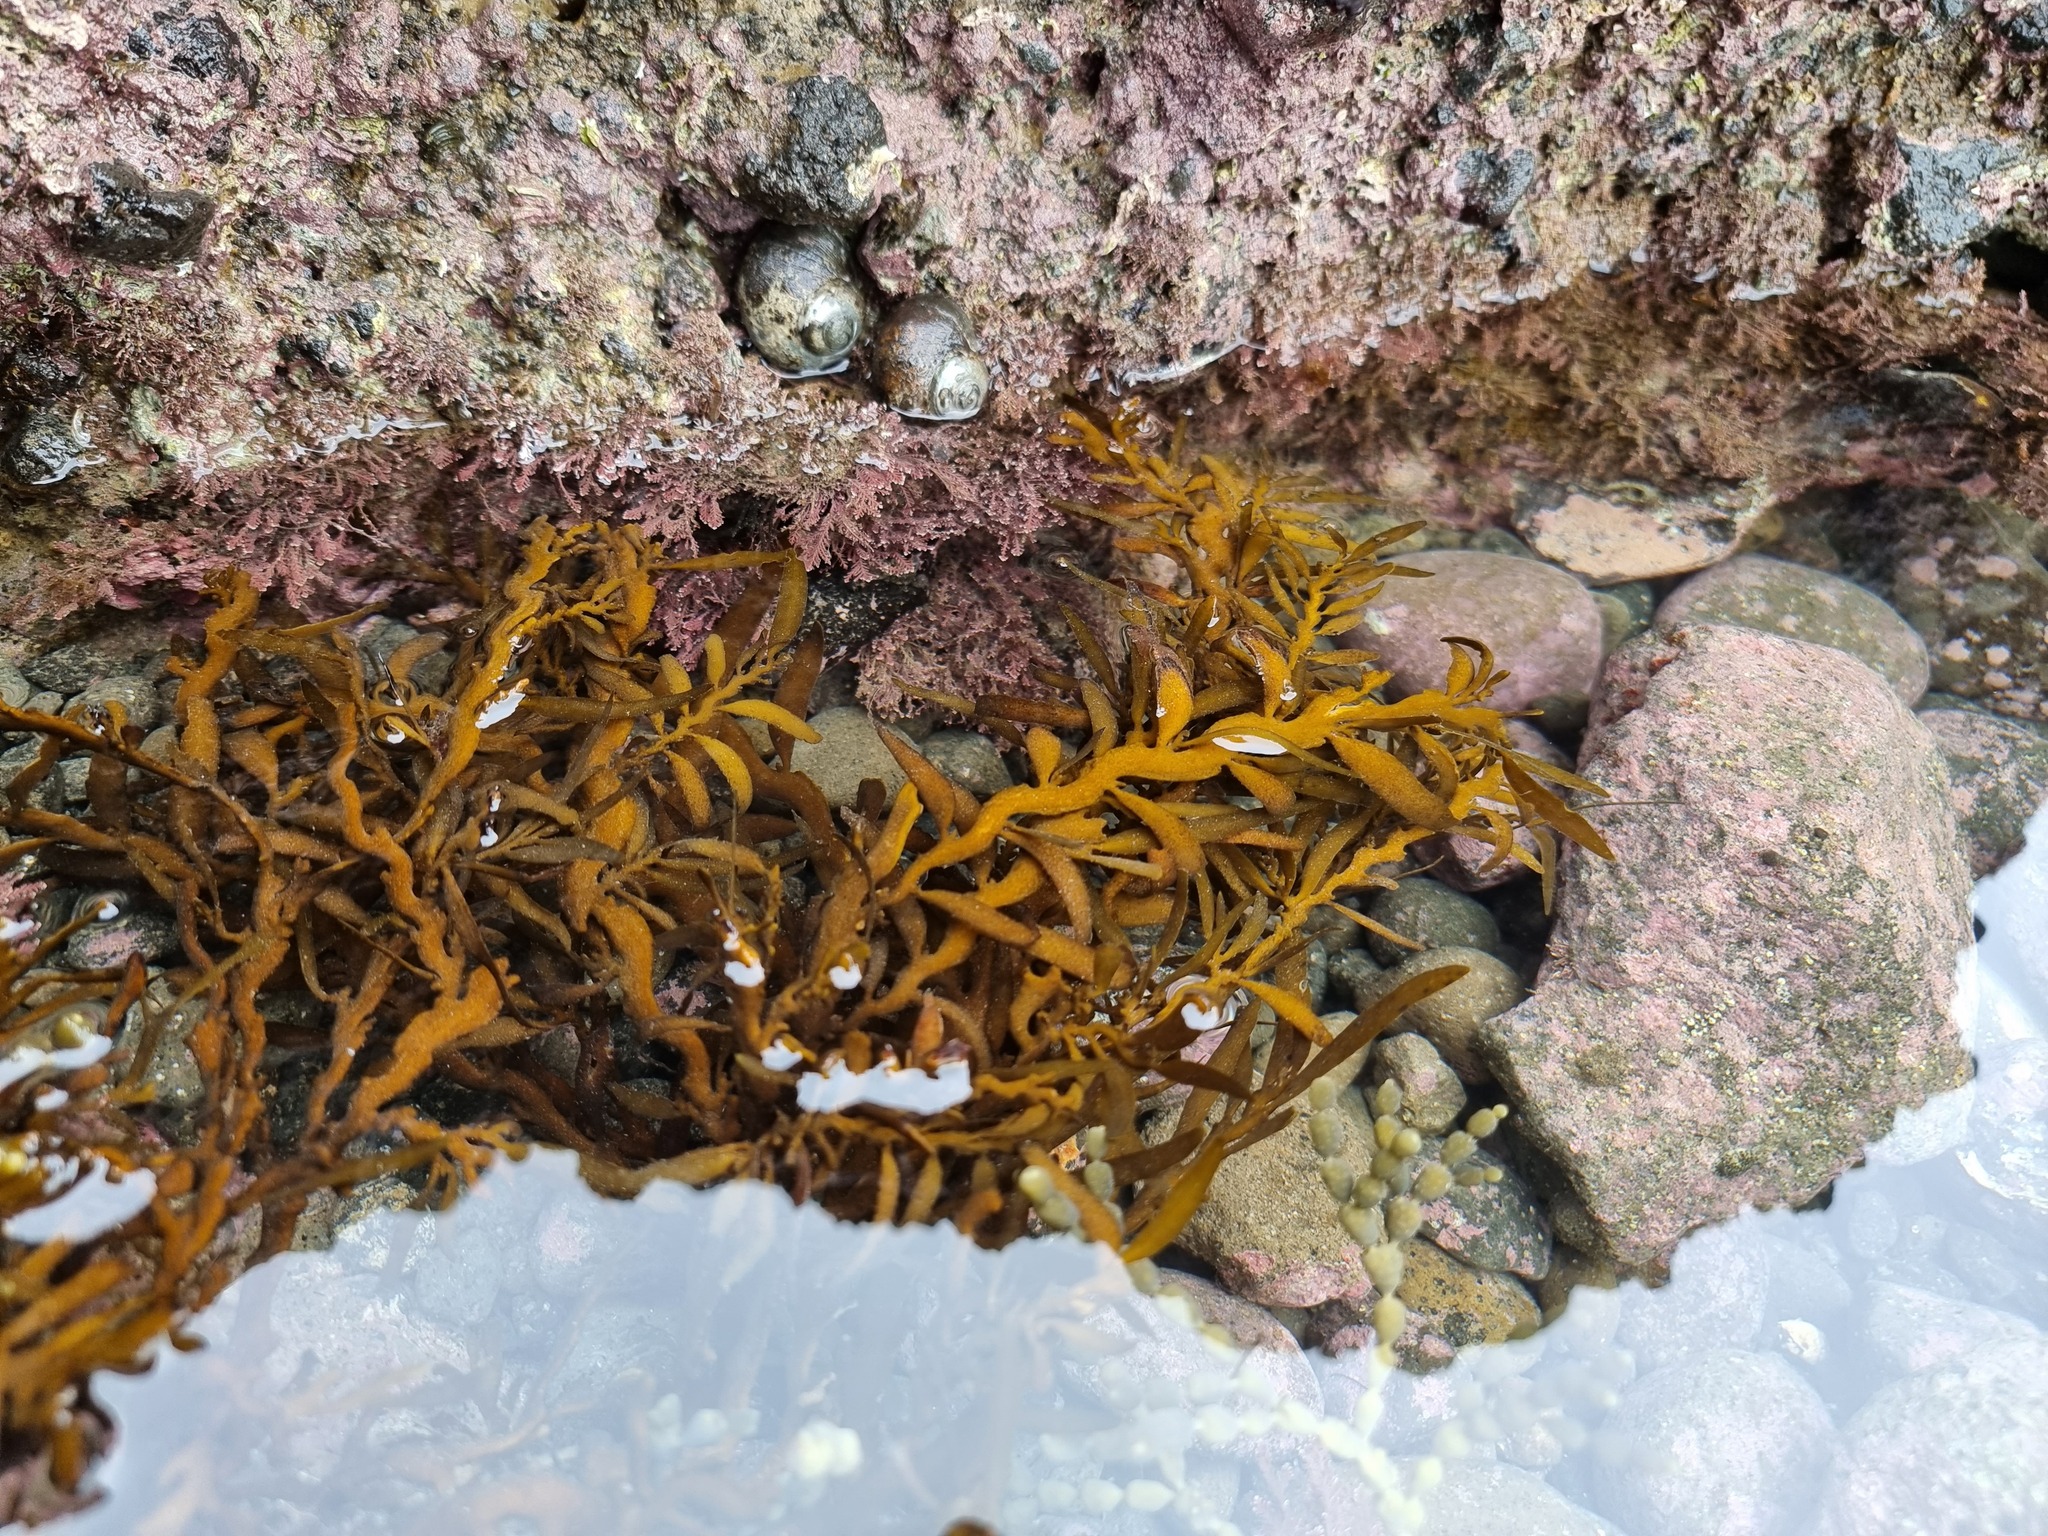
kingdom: Chromista
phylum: Ochrophyta
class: Phaeophyceae
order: Fucales
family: Sargassaceae
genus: Carpophyllum
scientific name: Carpophyllum maschalocarpum
